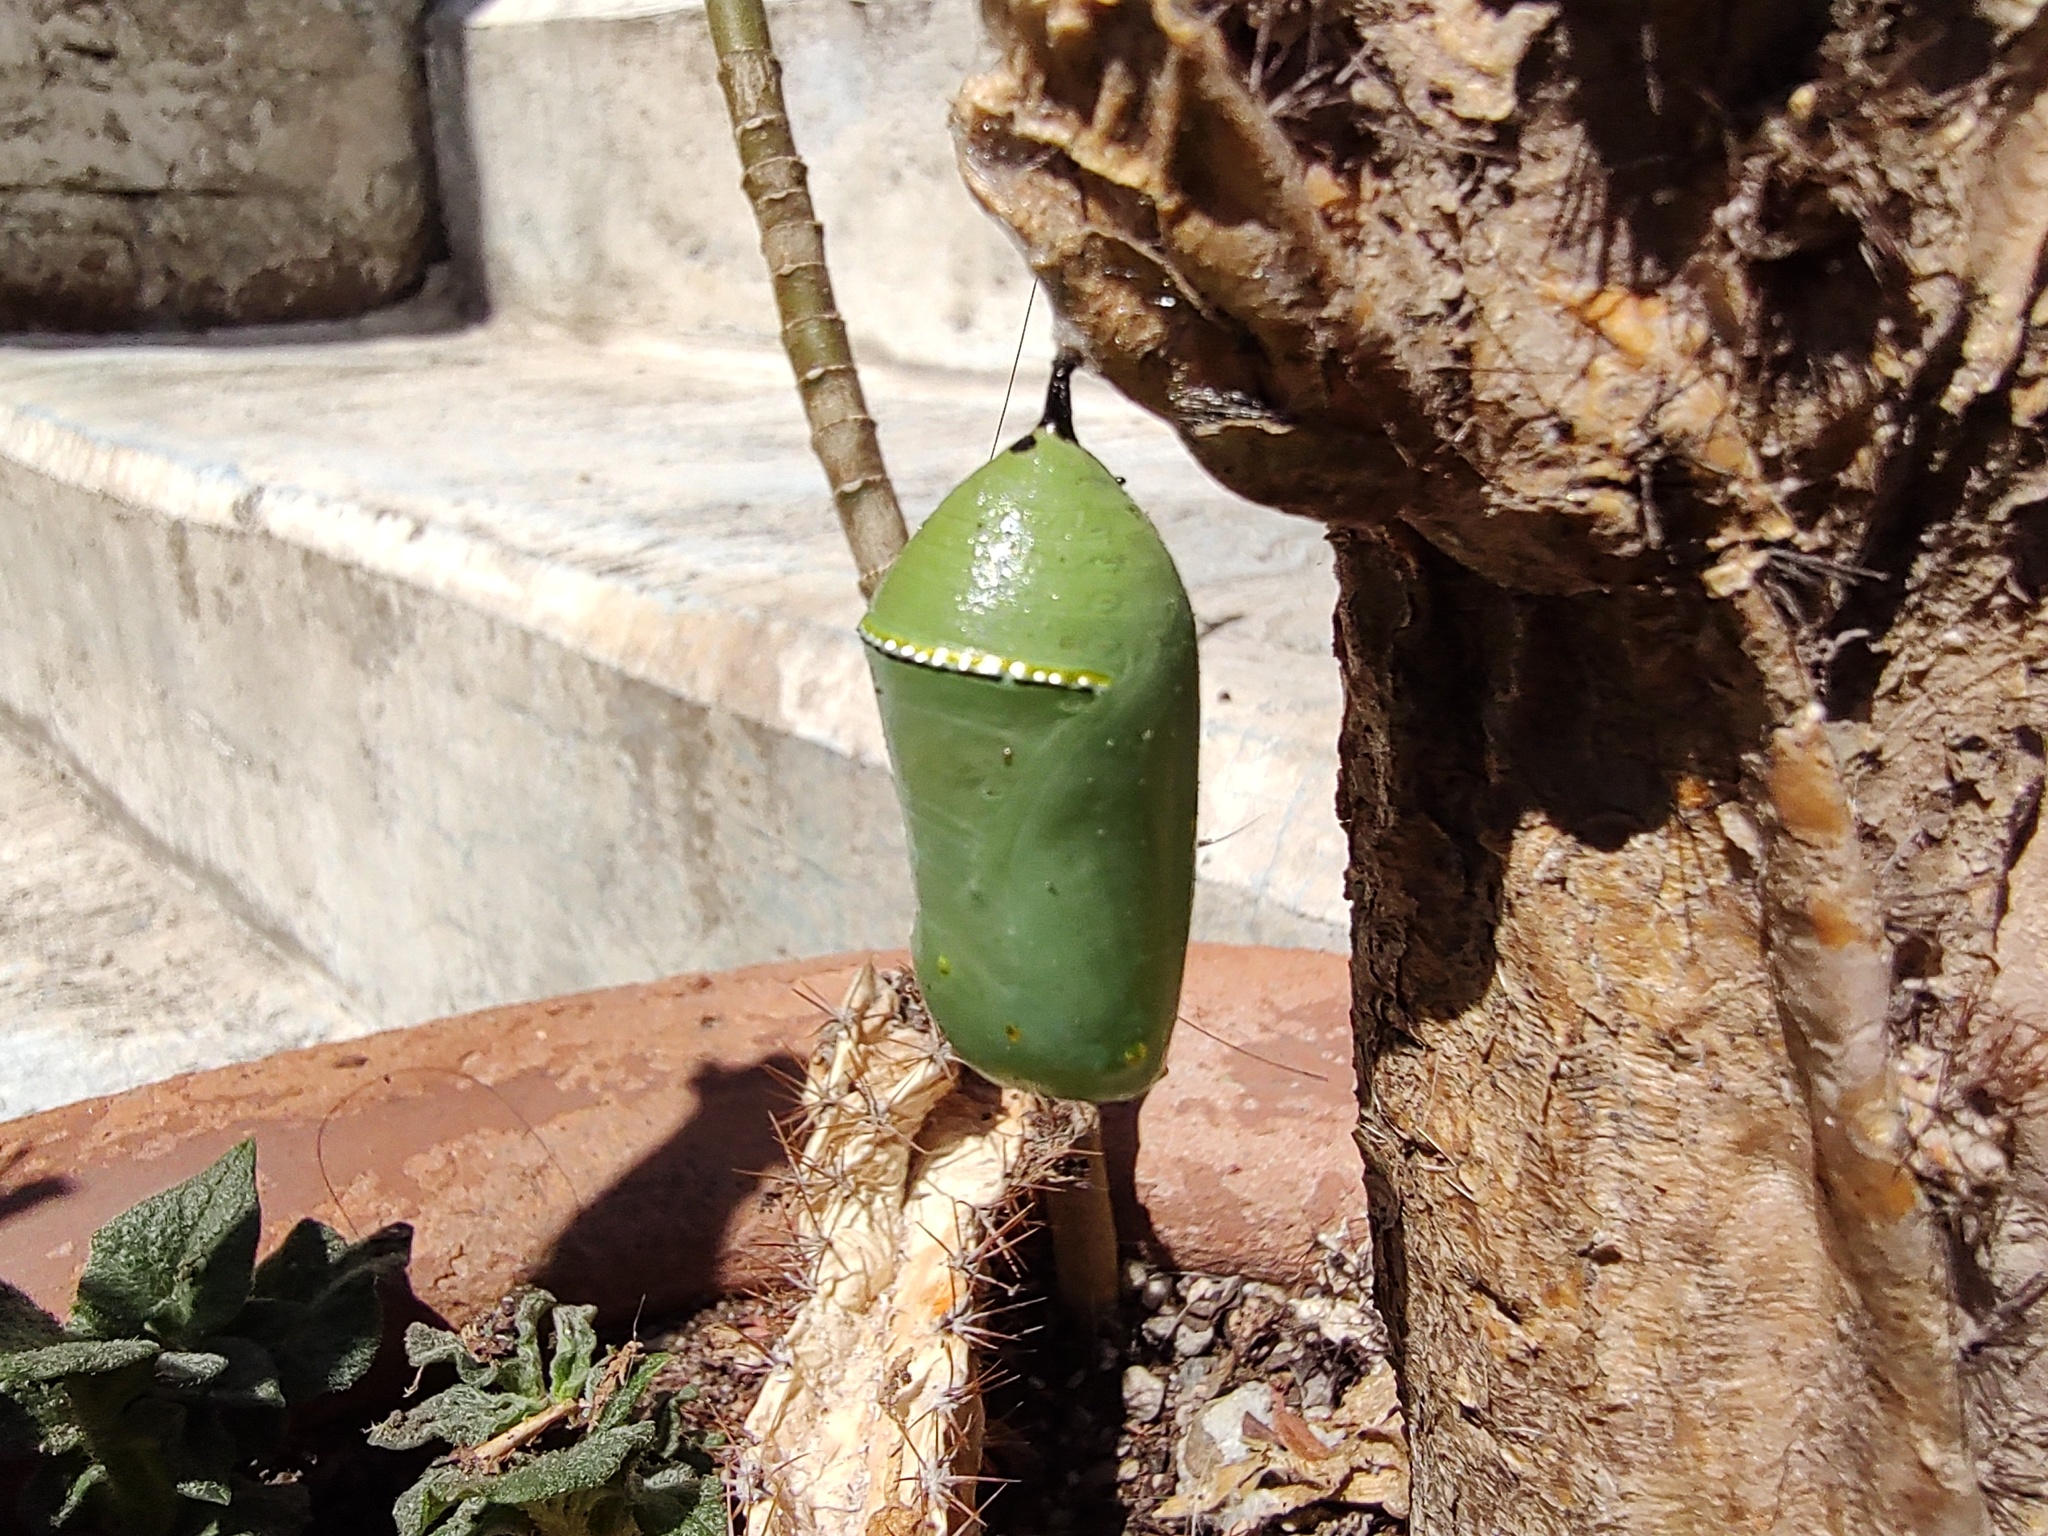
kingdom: Animalia
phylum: Arthropoda
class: Insecta
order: Lepidoptera
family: Nymphalidae
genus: Danaus
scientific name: Danaus plexippus
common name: Monarch
